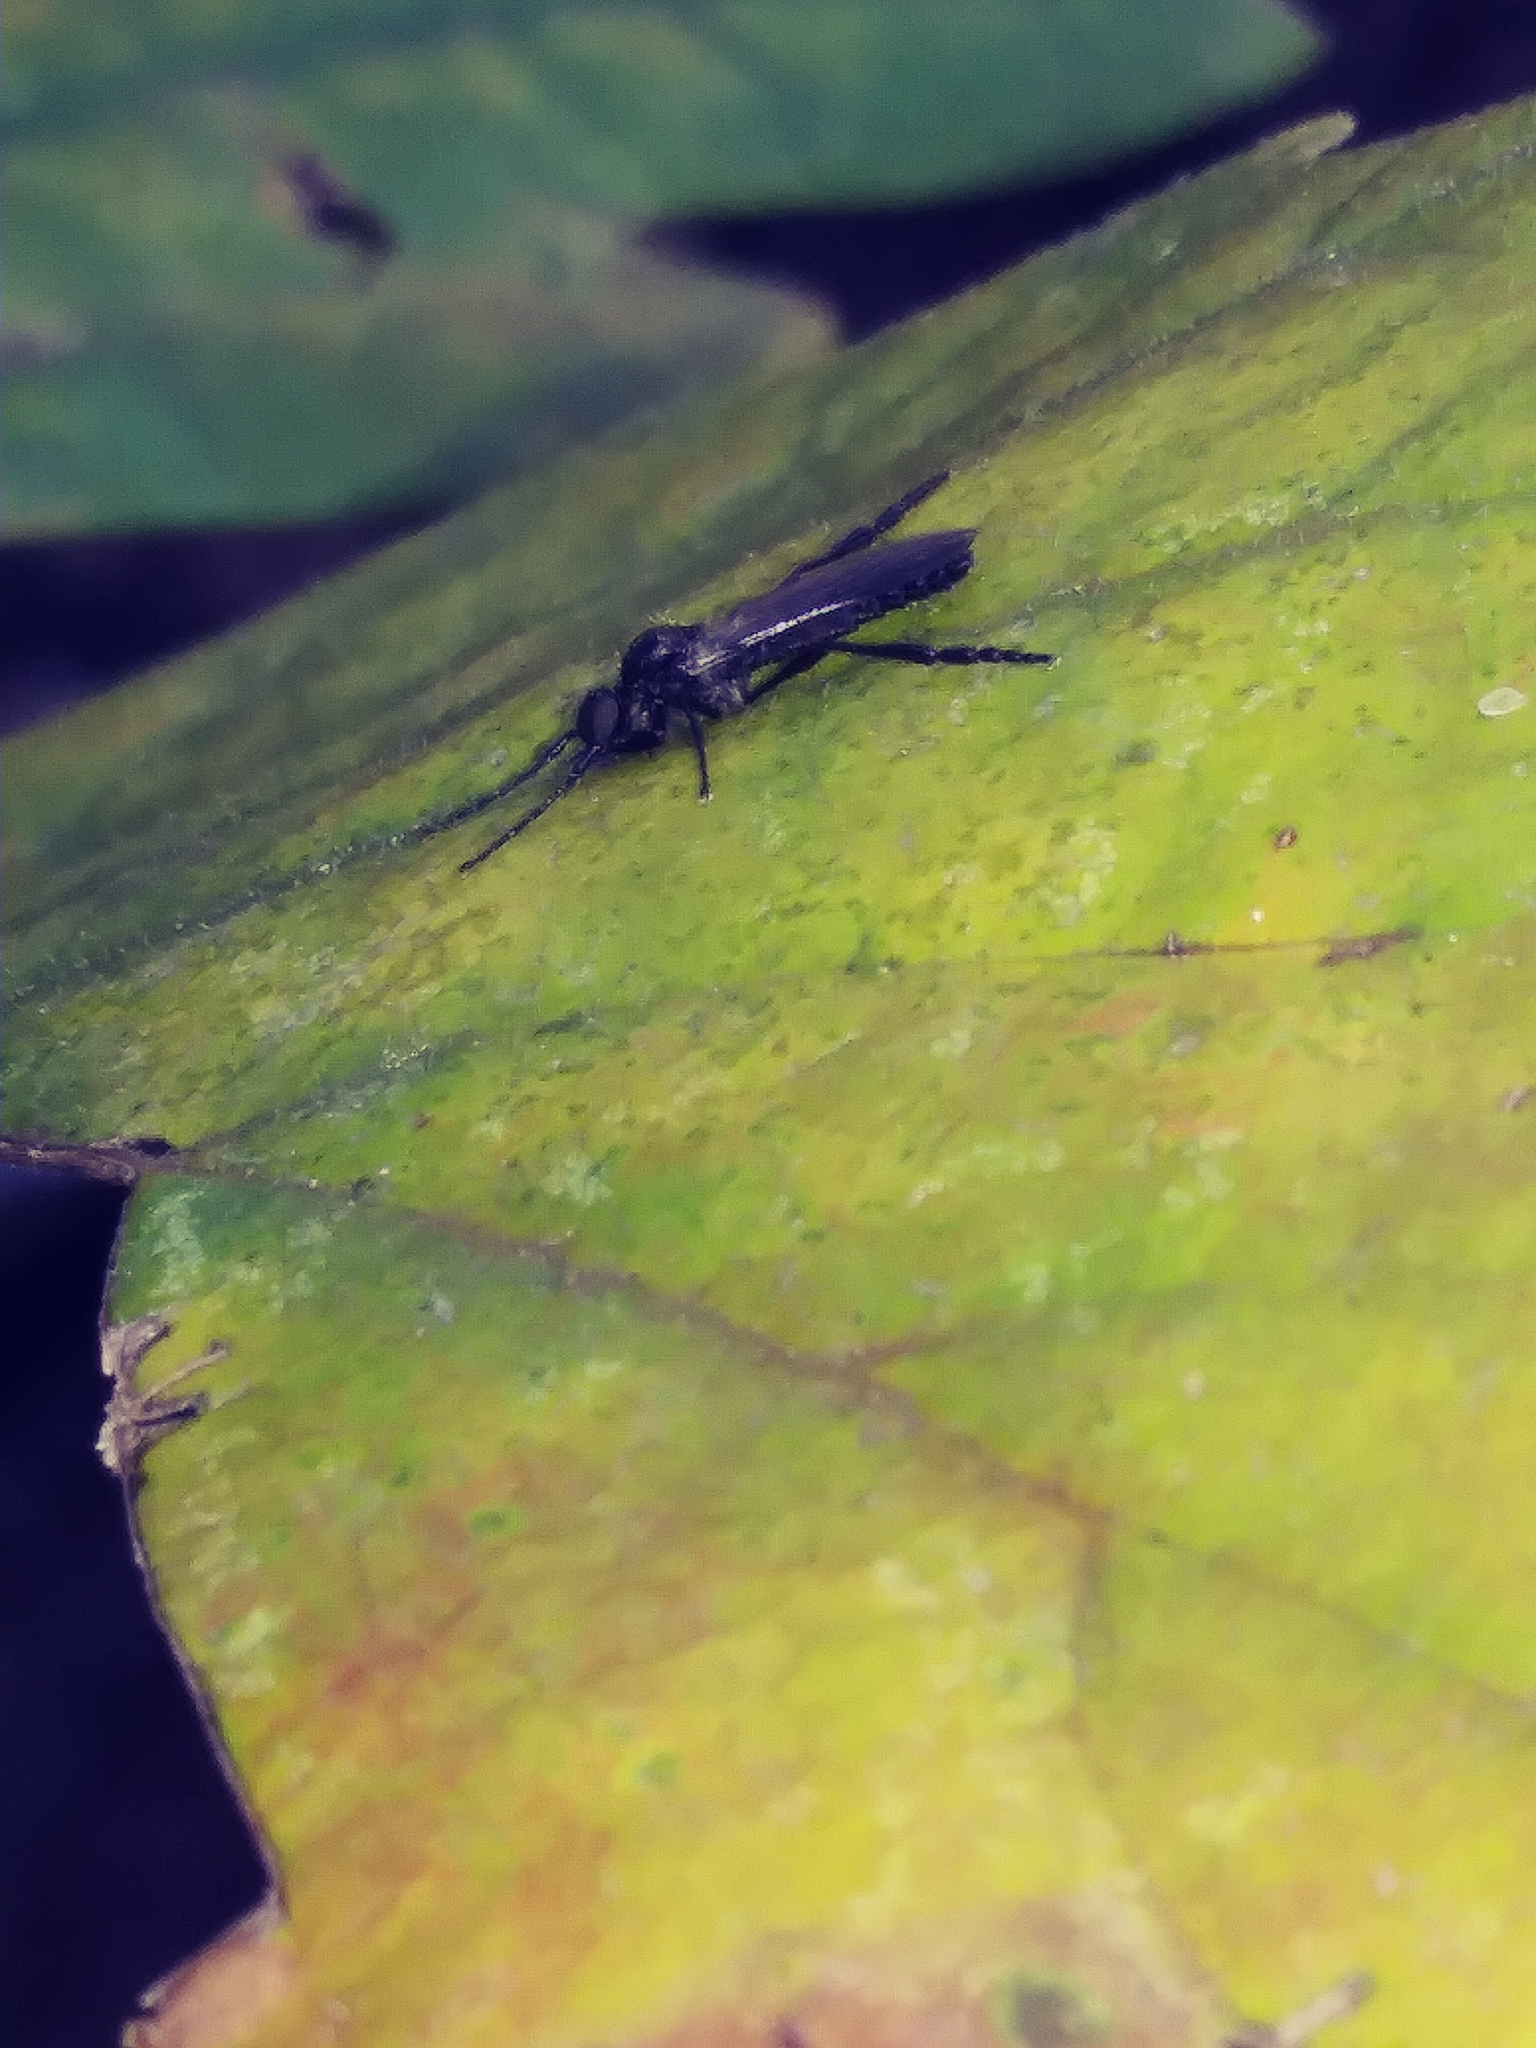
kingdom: Animalia
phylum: Arthropoda
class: Insecta
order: Diptera
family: Bibionidae
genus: Bibio
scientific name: Bibio longipes
